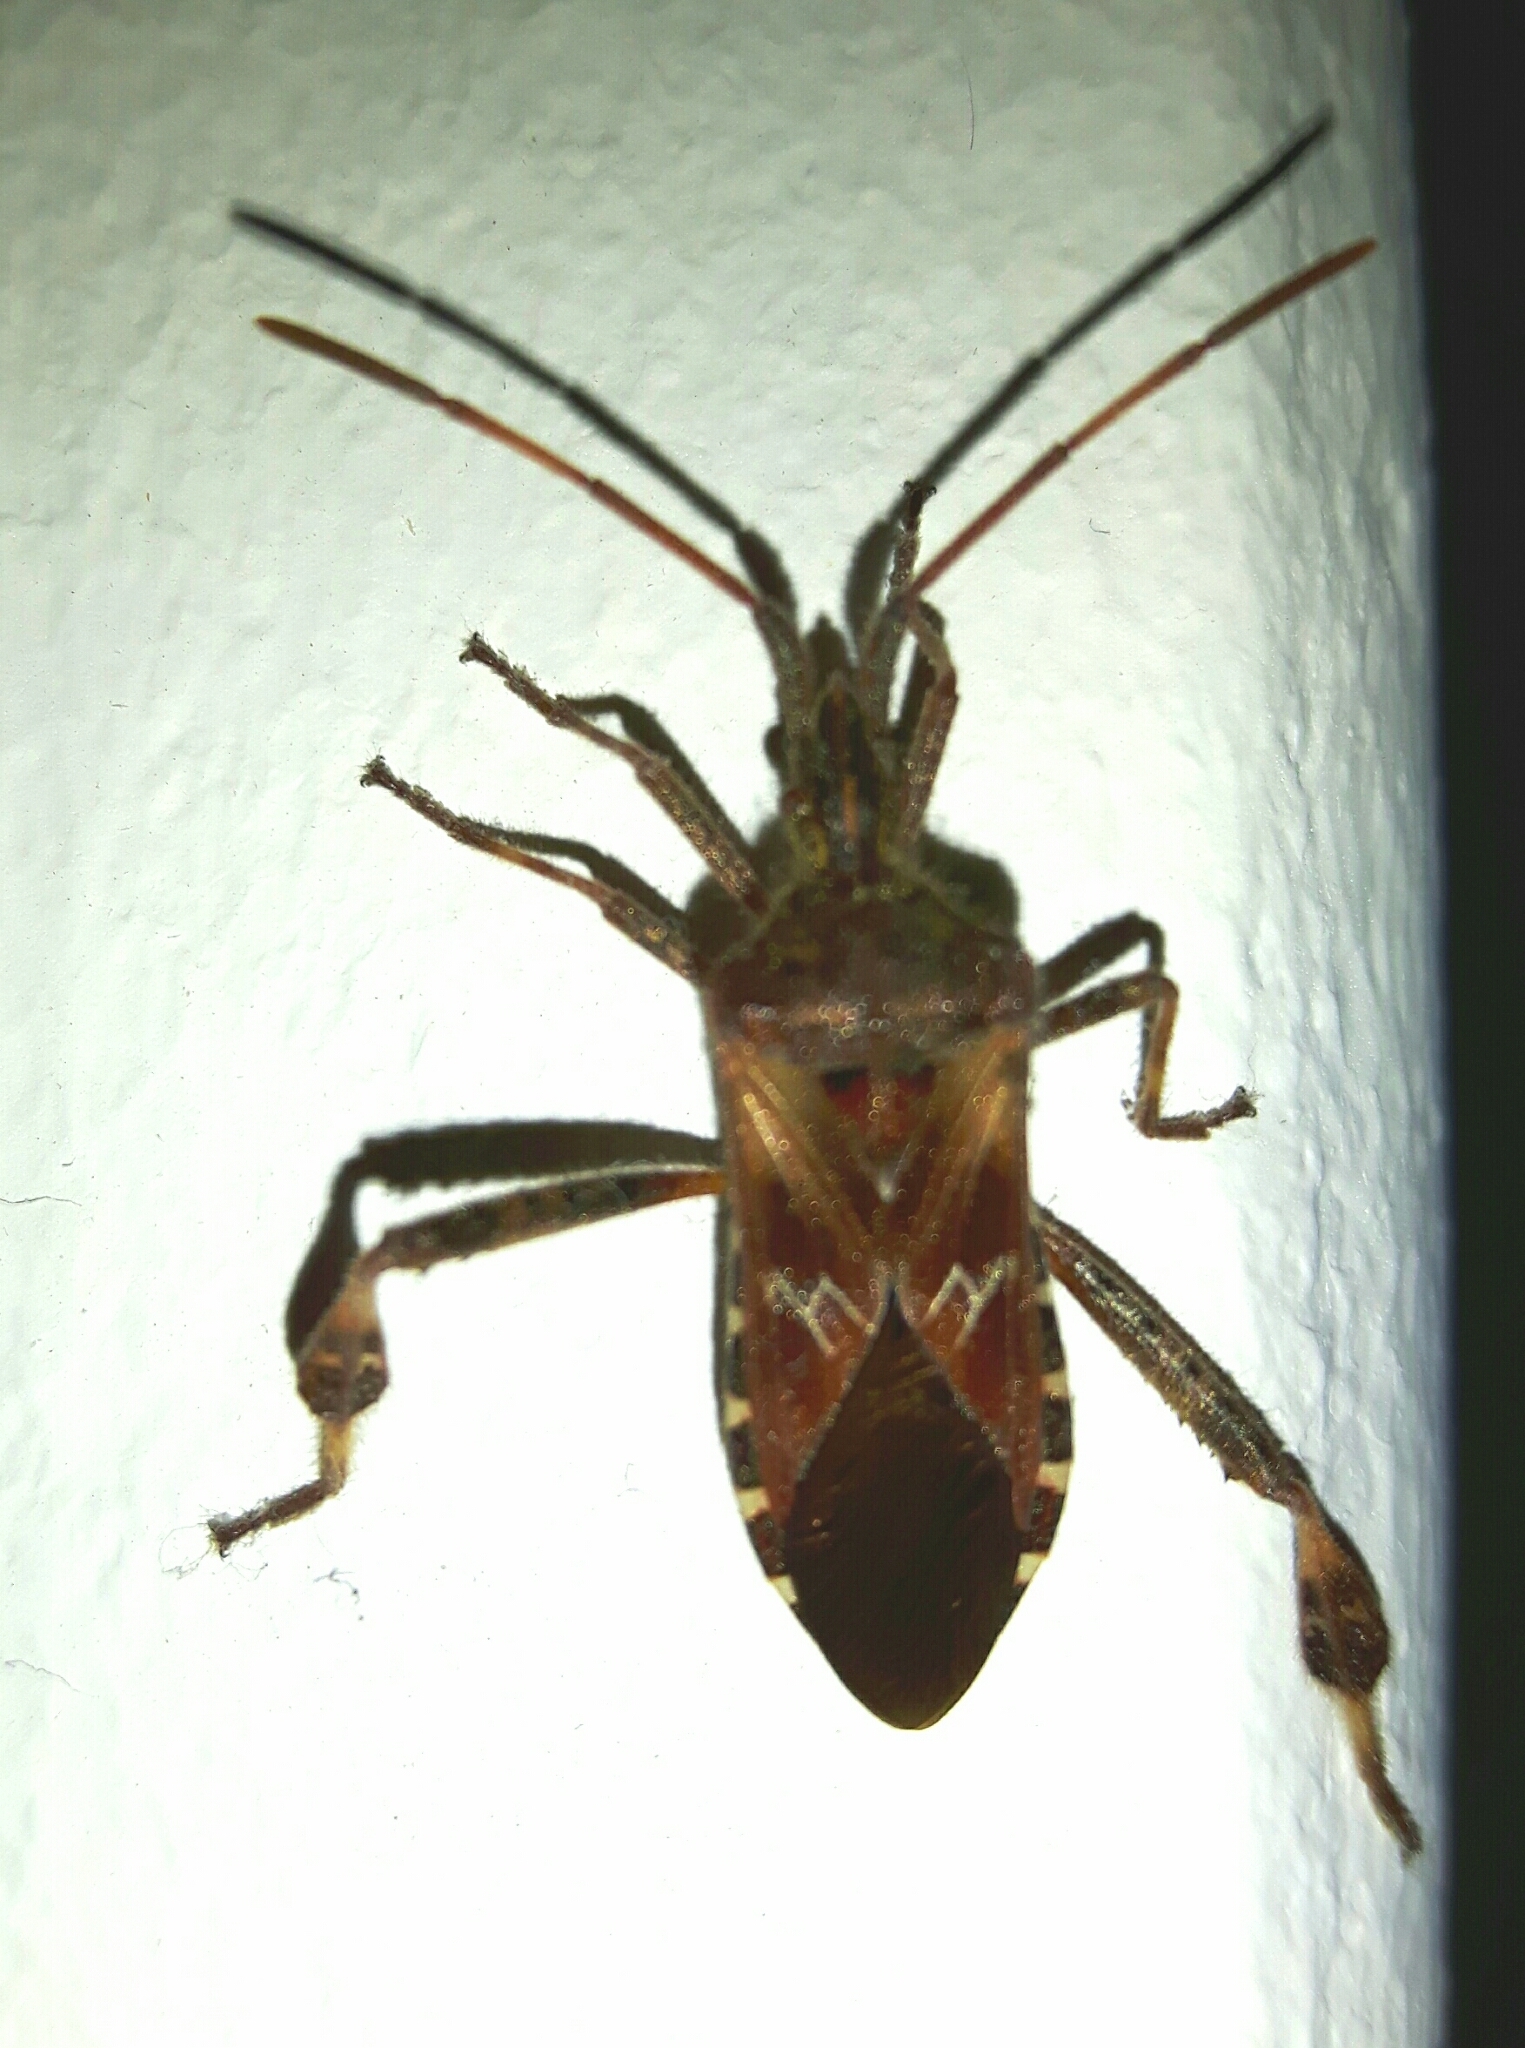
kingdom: Animalia
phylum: Arthropoda
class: Insecta
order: Hemiptera
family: Coreidae
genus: Leptoglossus
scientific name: Leptoglossus occidentalis
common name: Western conifer-seed bug
